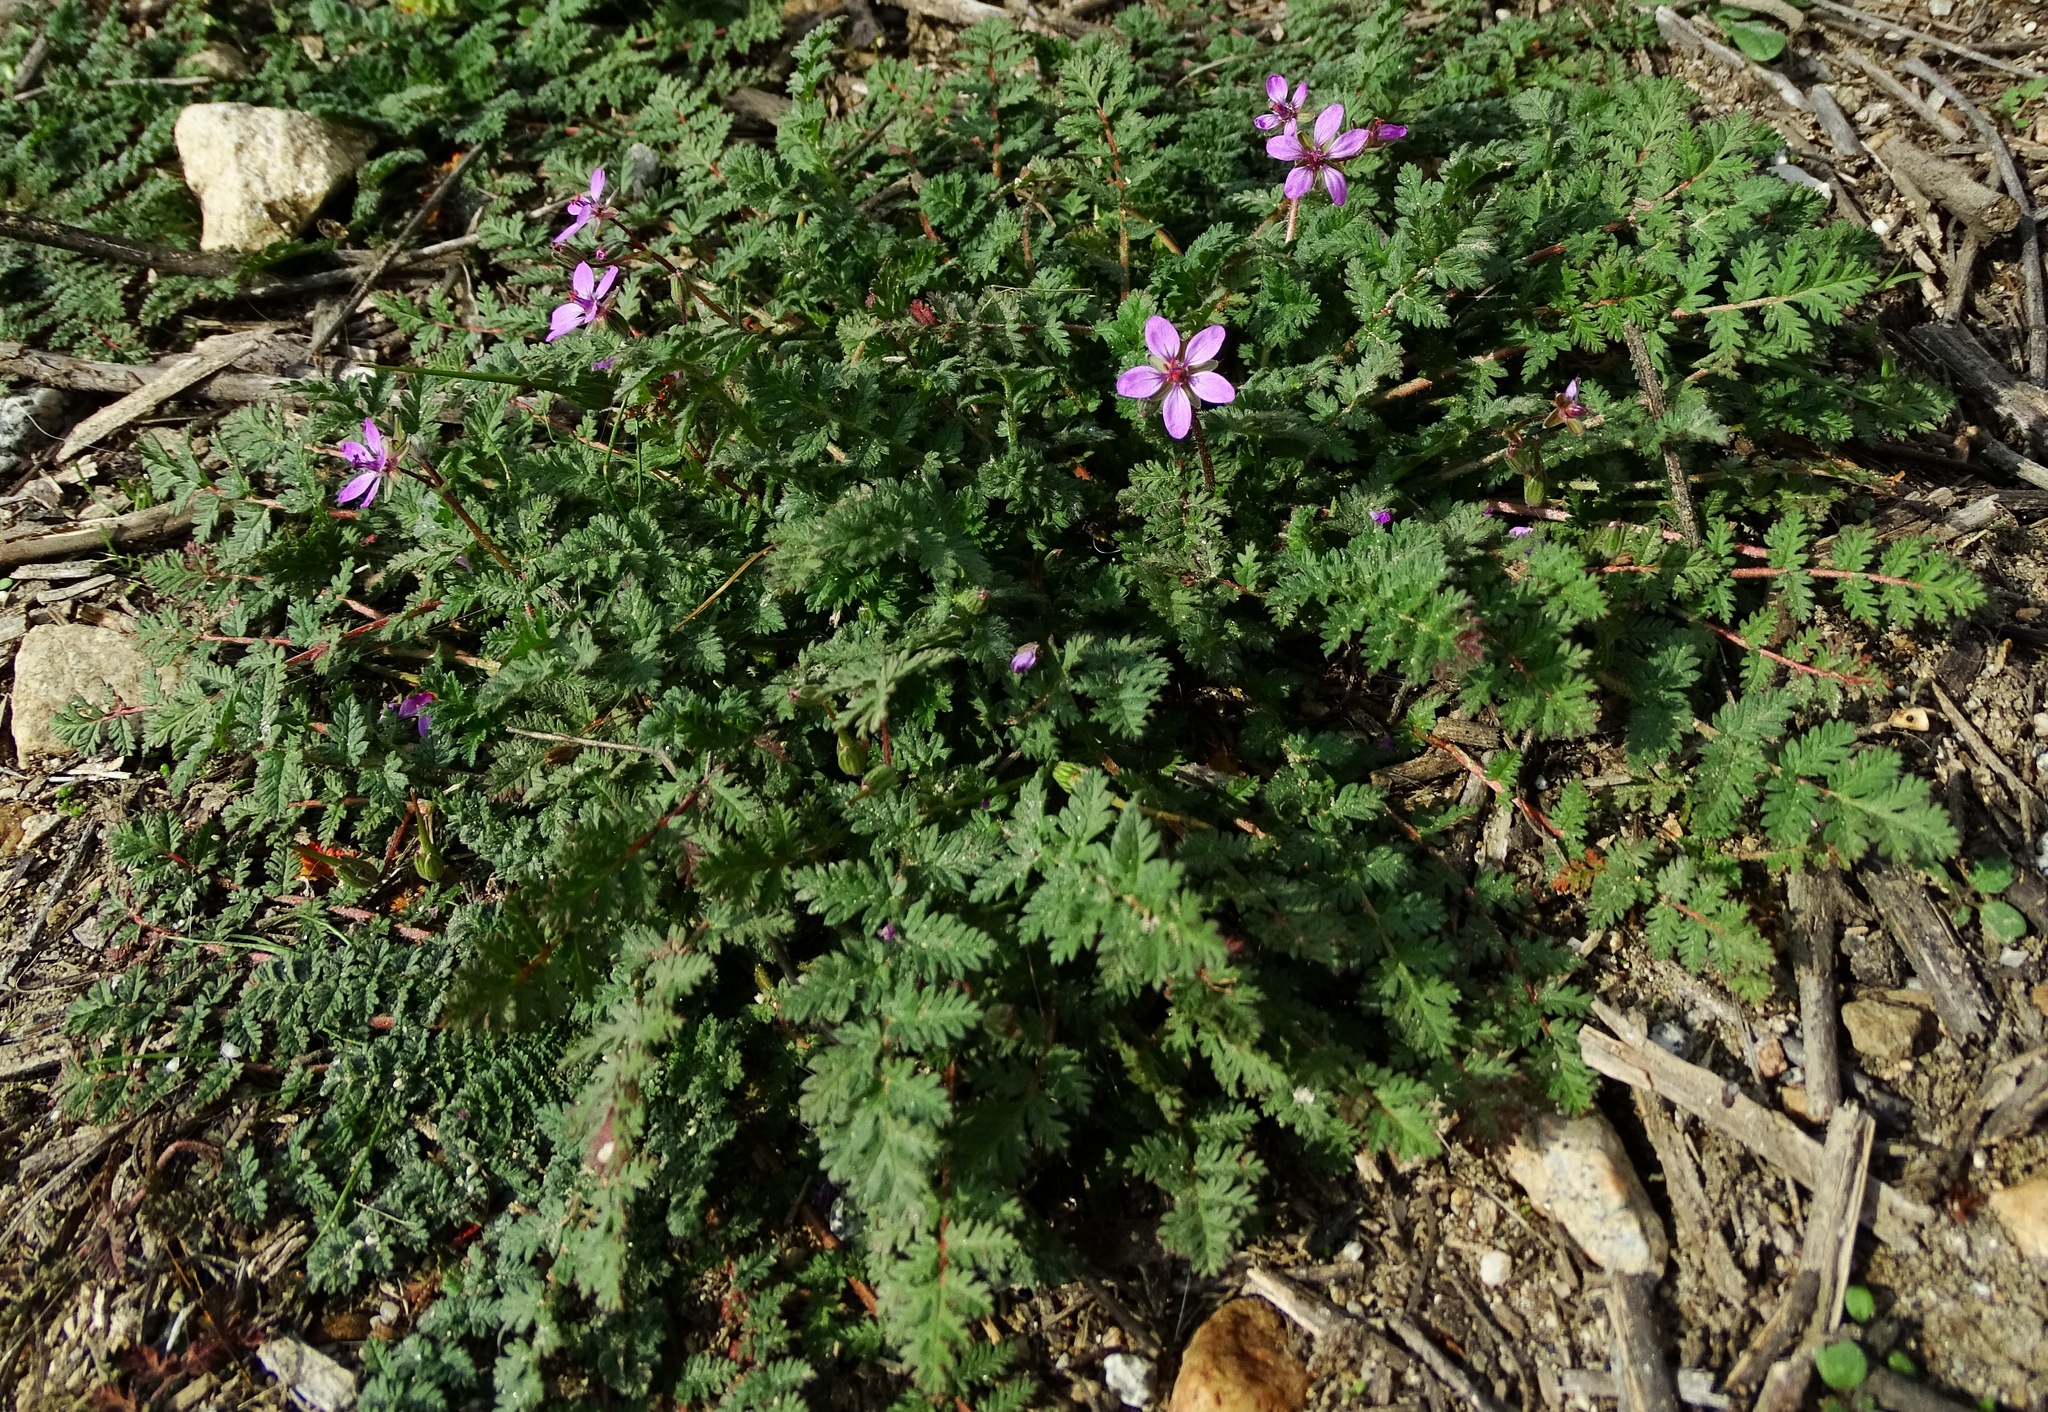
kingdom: Plantae
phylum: Tracheophyta
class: Magnoliopsida
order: Geraniales
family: Geraniaceae
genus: Erodium
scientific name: Erodium cicutarium
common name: Common stork's-bill
